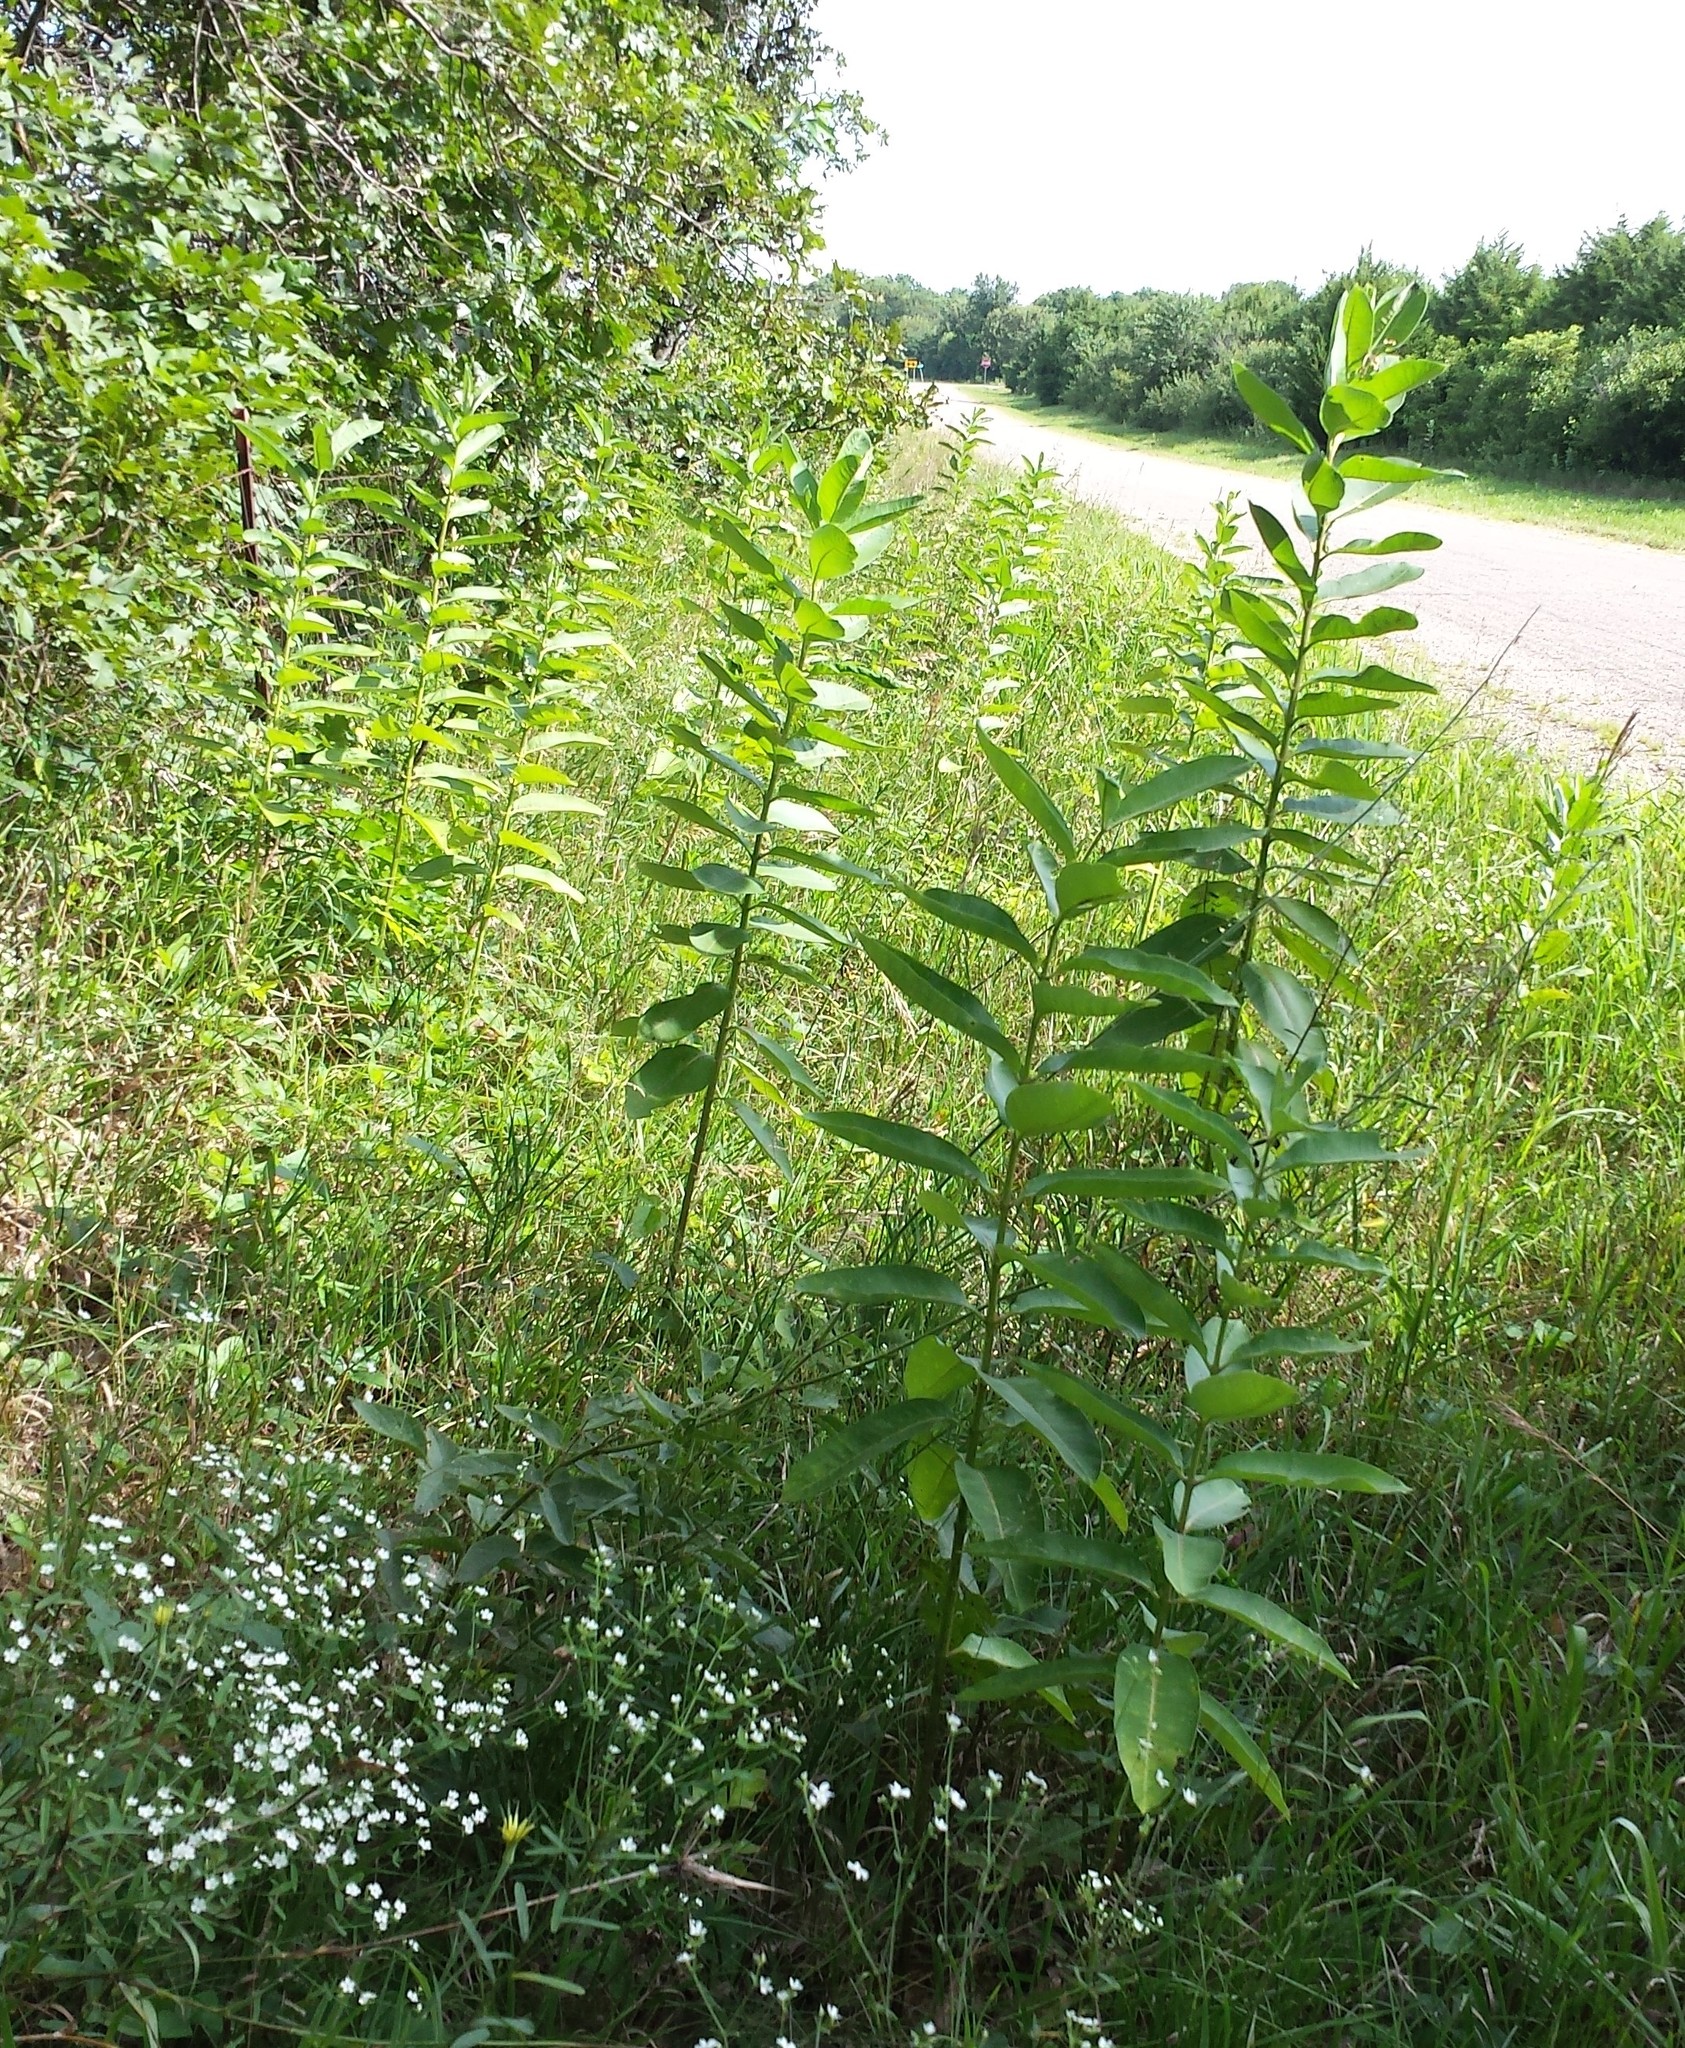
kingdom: Plantae
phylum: Tracheophyta
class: Magnoliopsida
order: Gentianales
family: Apocynaceae
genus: Asclepias
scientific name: Asclepias syriaca
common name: Common milkweed
